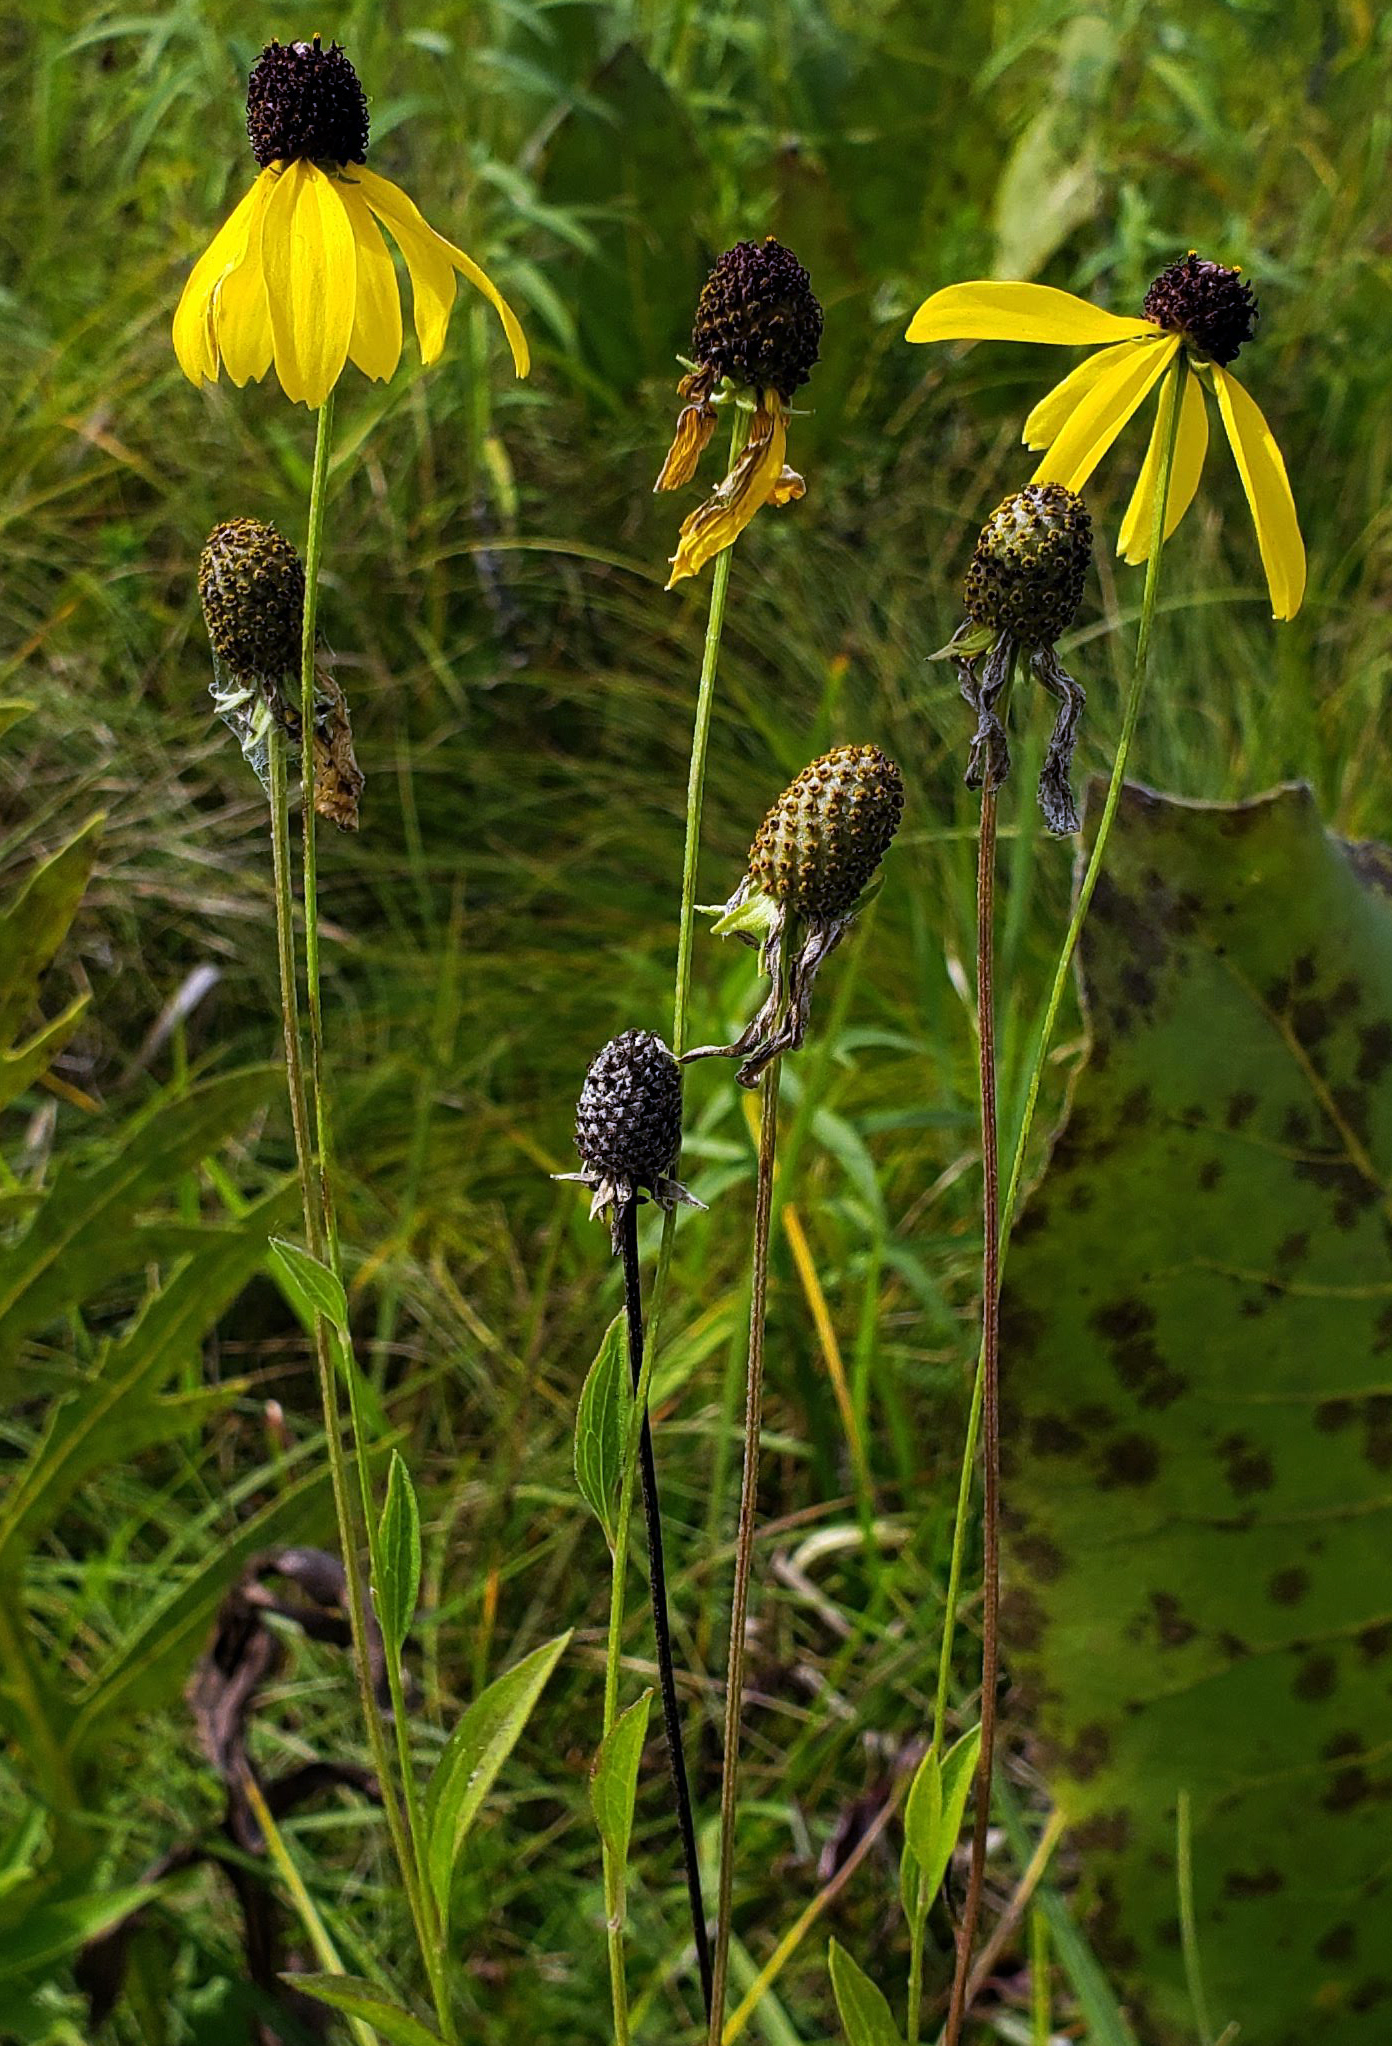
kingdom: Plantae
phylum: Tracheophyta
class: Magnoliopsida
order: Asterales
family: Asteraceae
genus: Ratibida
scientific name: Ratibida pinnata
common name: Drooping prairie-coneflower
